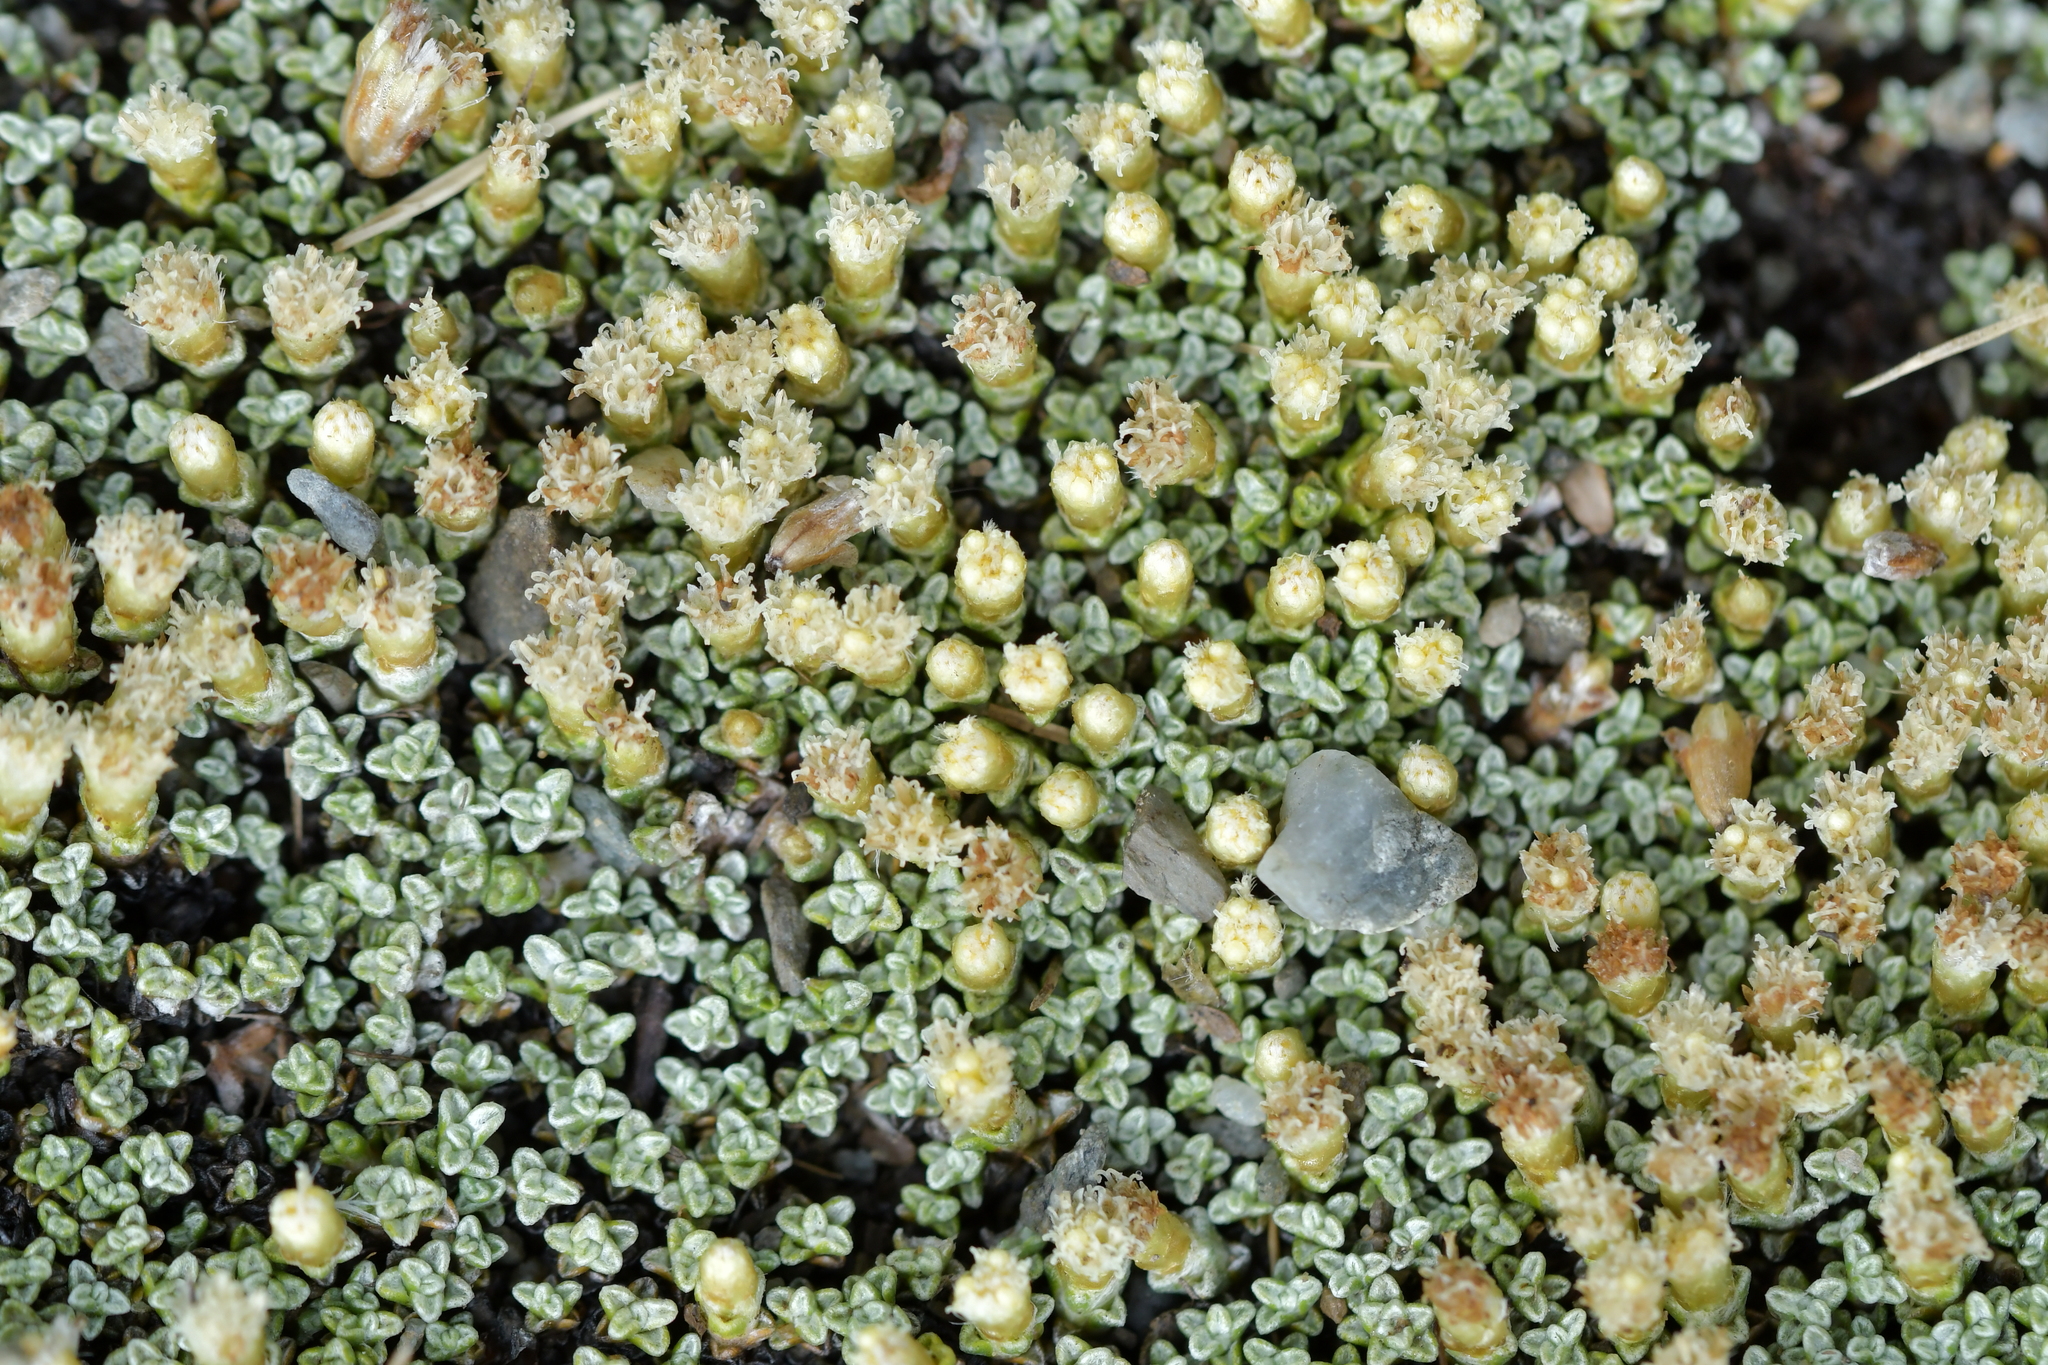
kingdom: Plantae
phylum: Tracheophyta
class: Magnoliopsida
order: Asterales
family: Asteraceae
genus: Raoulia
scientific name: Raoulia australis
